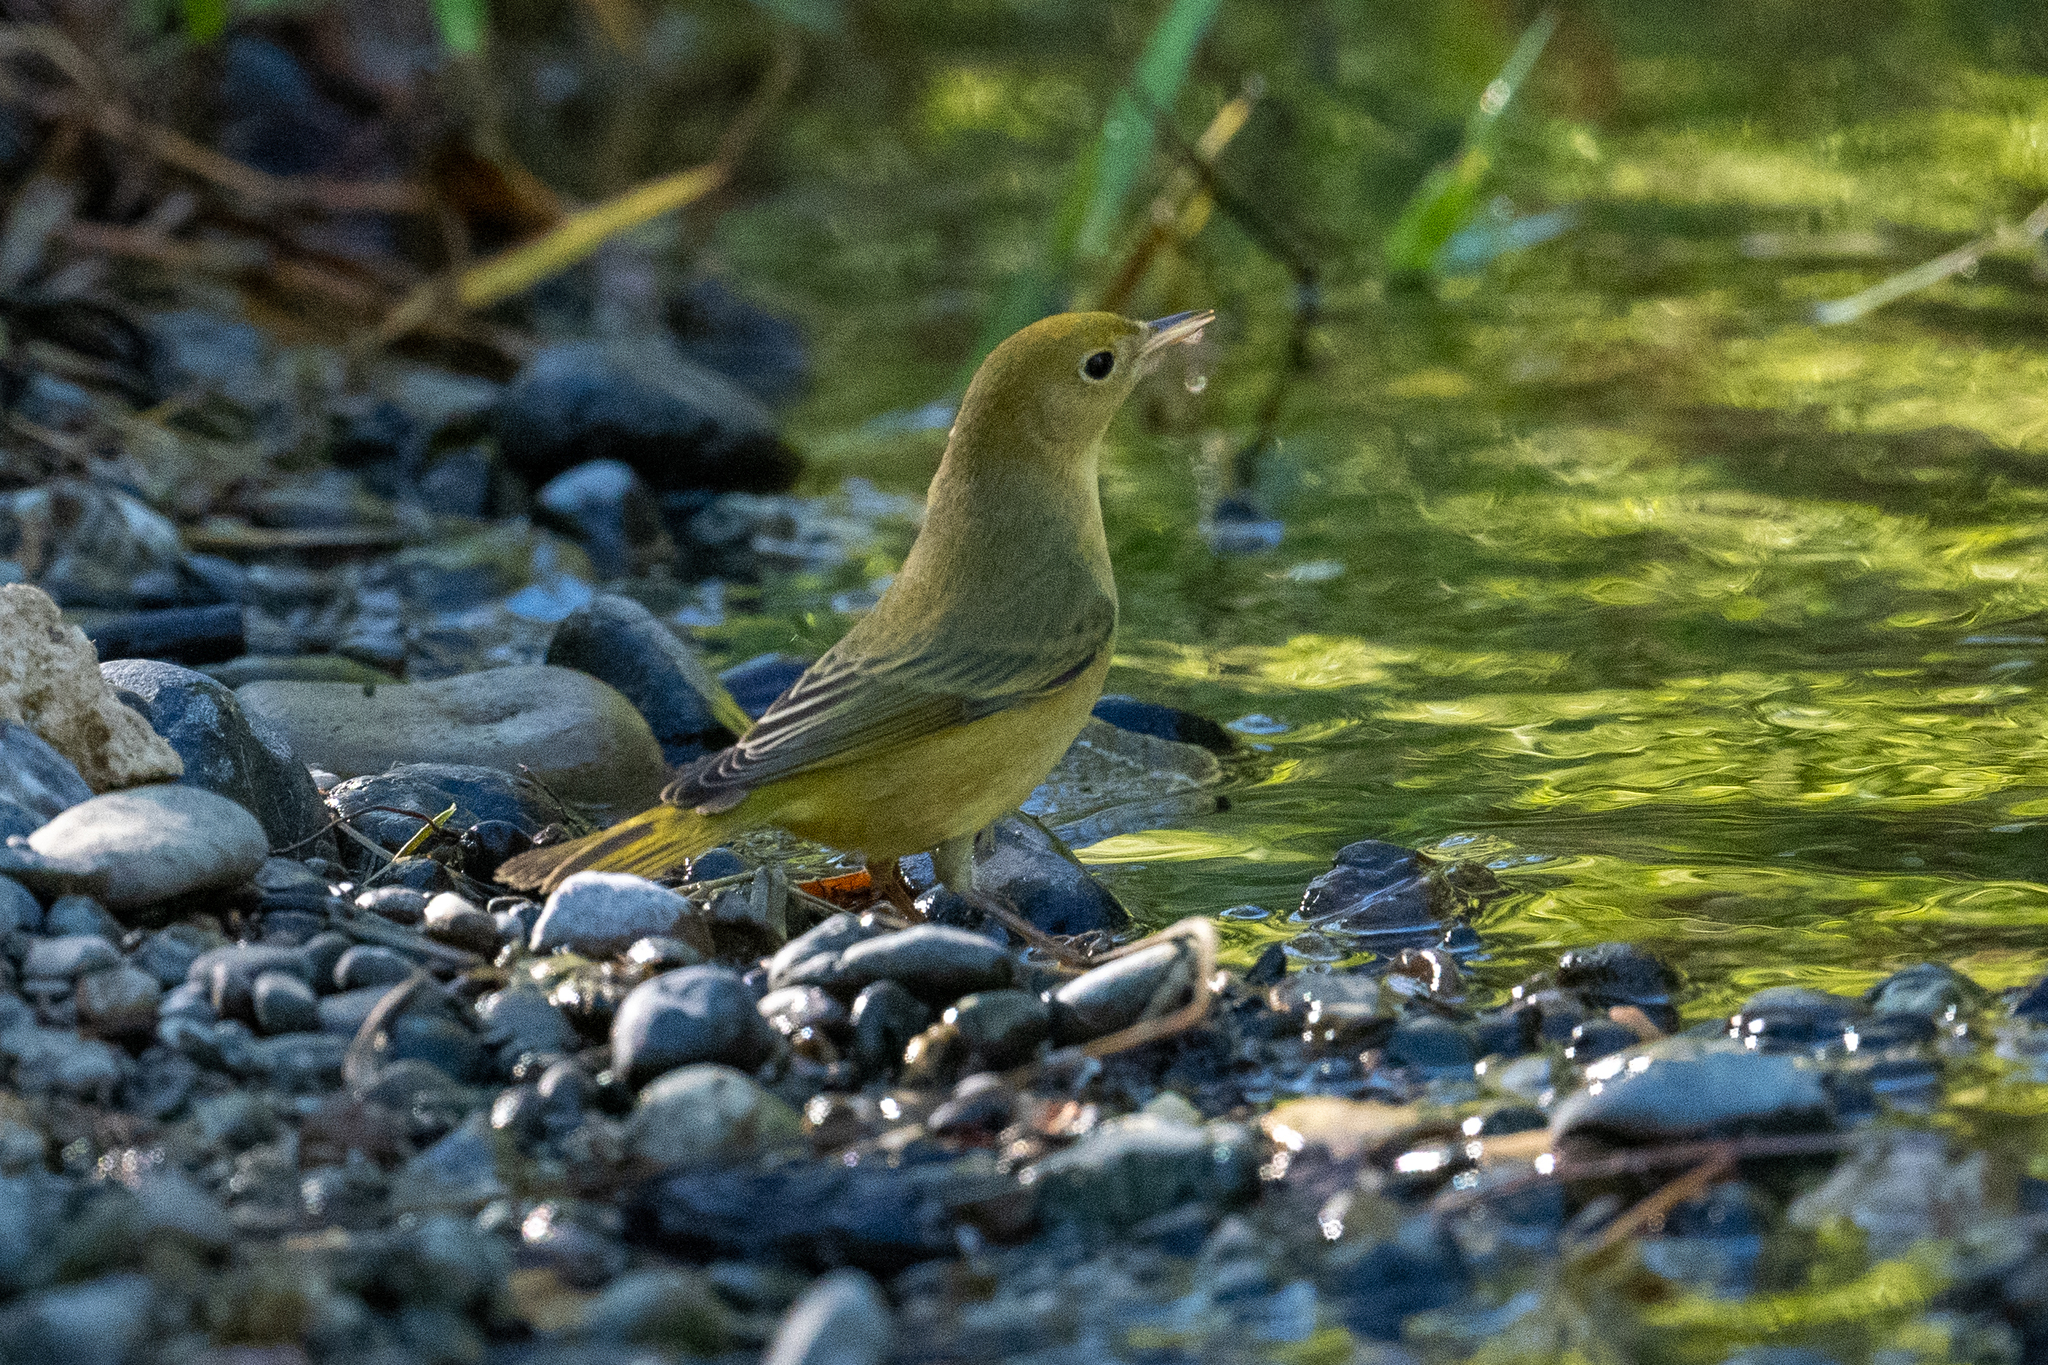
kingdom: Animalia
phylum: Chordata
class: Aves
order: Passeriformes
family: Parulidae
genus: Setophaga
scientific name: Setophaga petechia
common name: Yellow warbler
